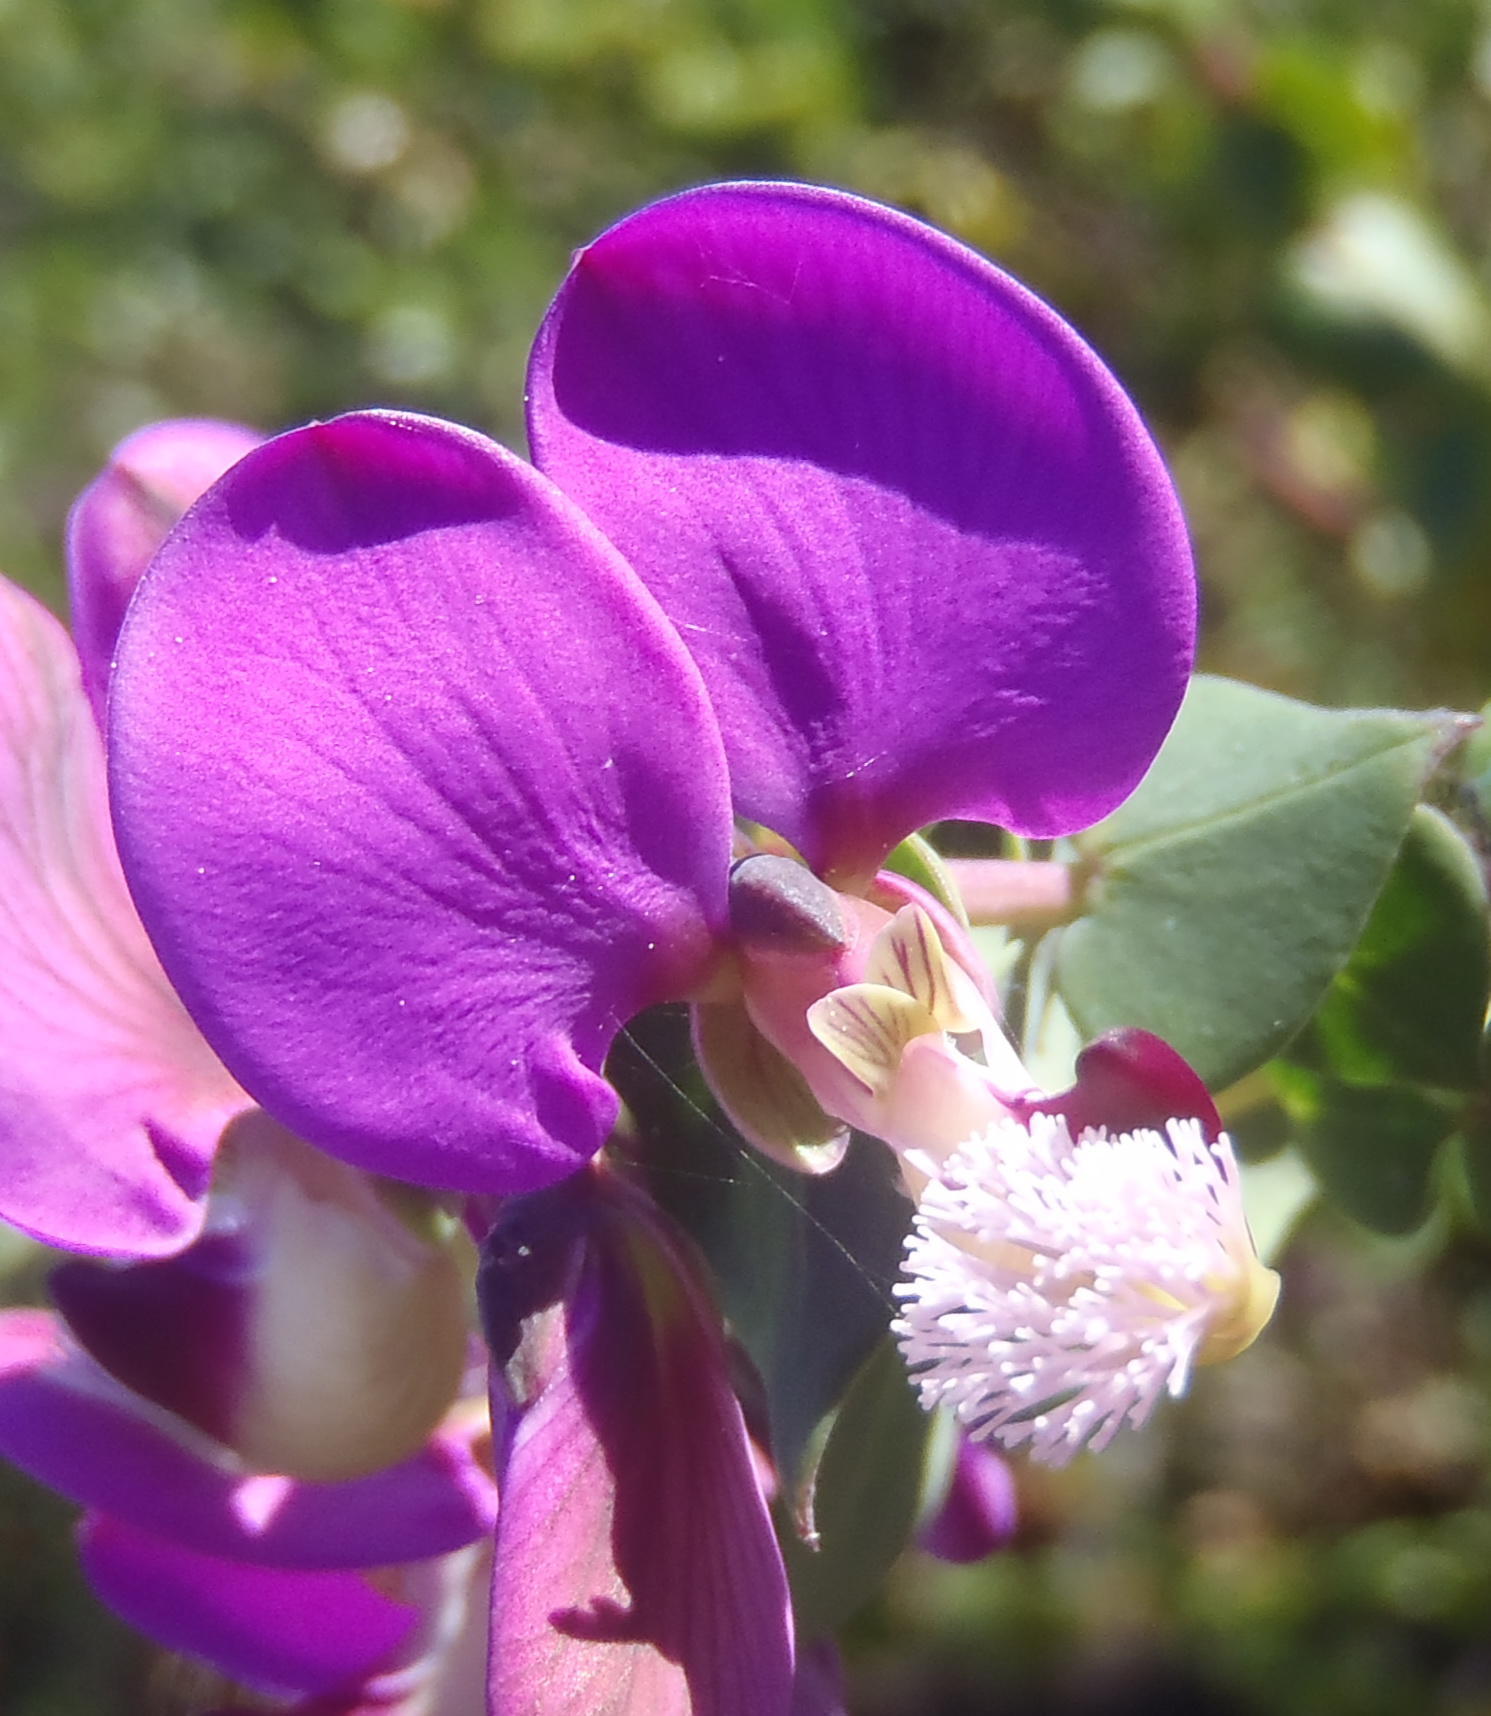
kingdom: Plantae
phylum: Tracheophyta
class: Magnoliopsida
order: Fabales
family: Polygalaceae
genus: Polygala
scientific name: Polygala fruticosa
